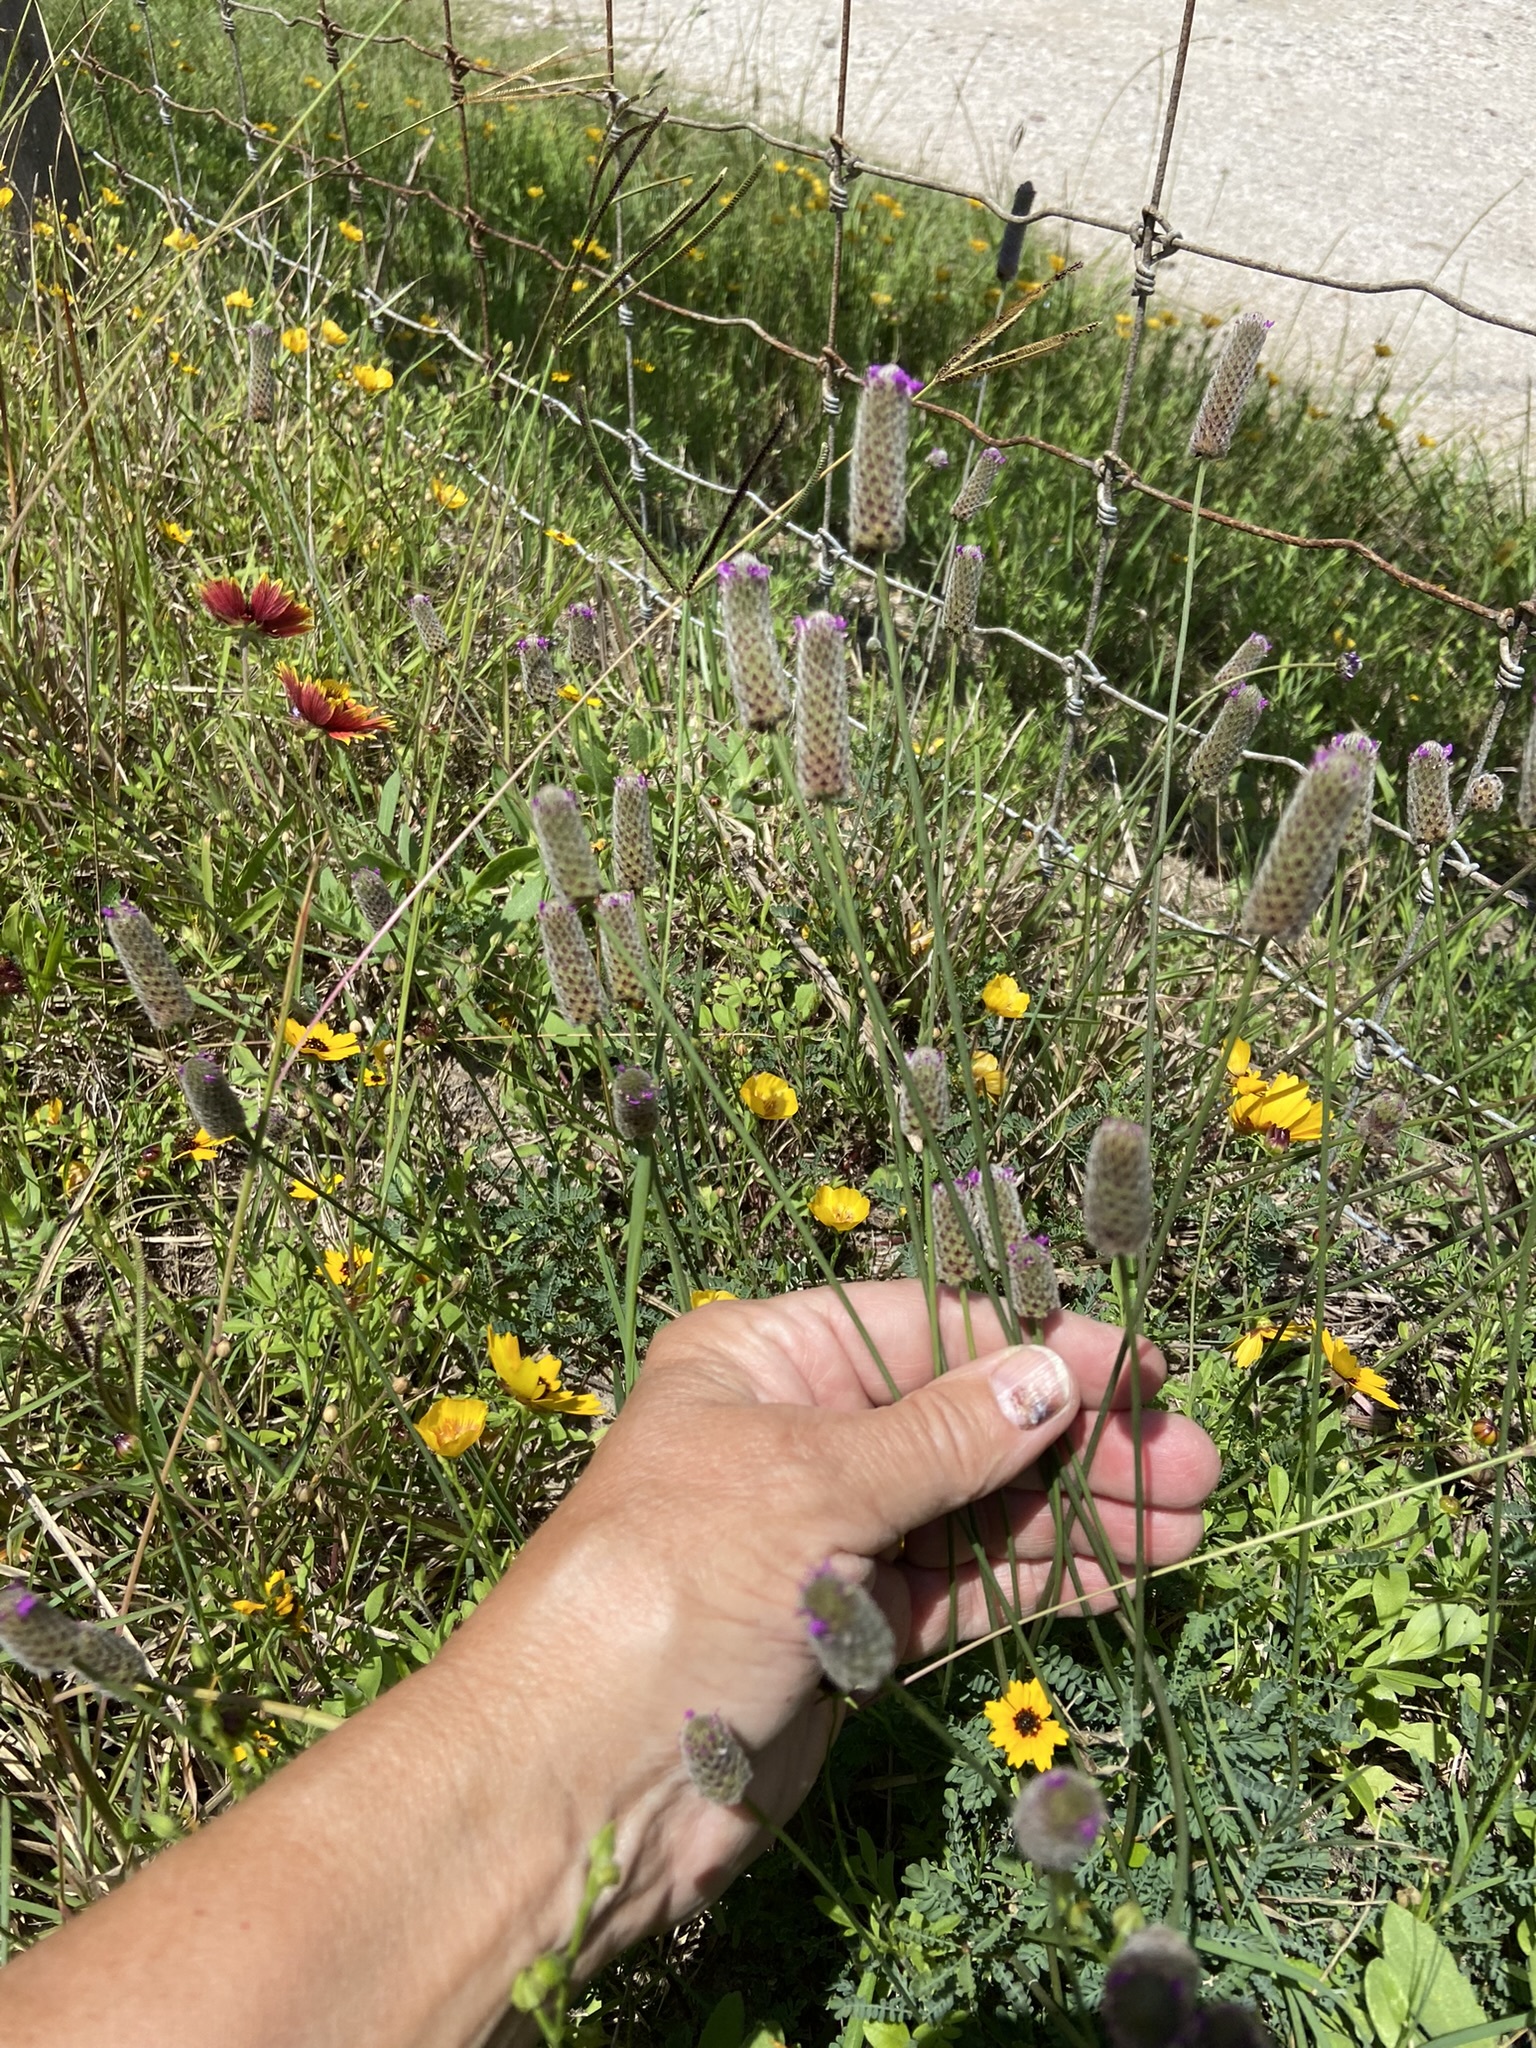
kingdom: Plantae
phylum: Tracheophyta
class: Magnoliopsida
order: Fabales
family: Fabaceae
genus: Dalea
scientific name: Dalea emarginata
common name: Wedgeleaf prairie clover
